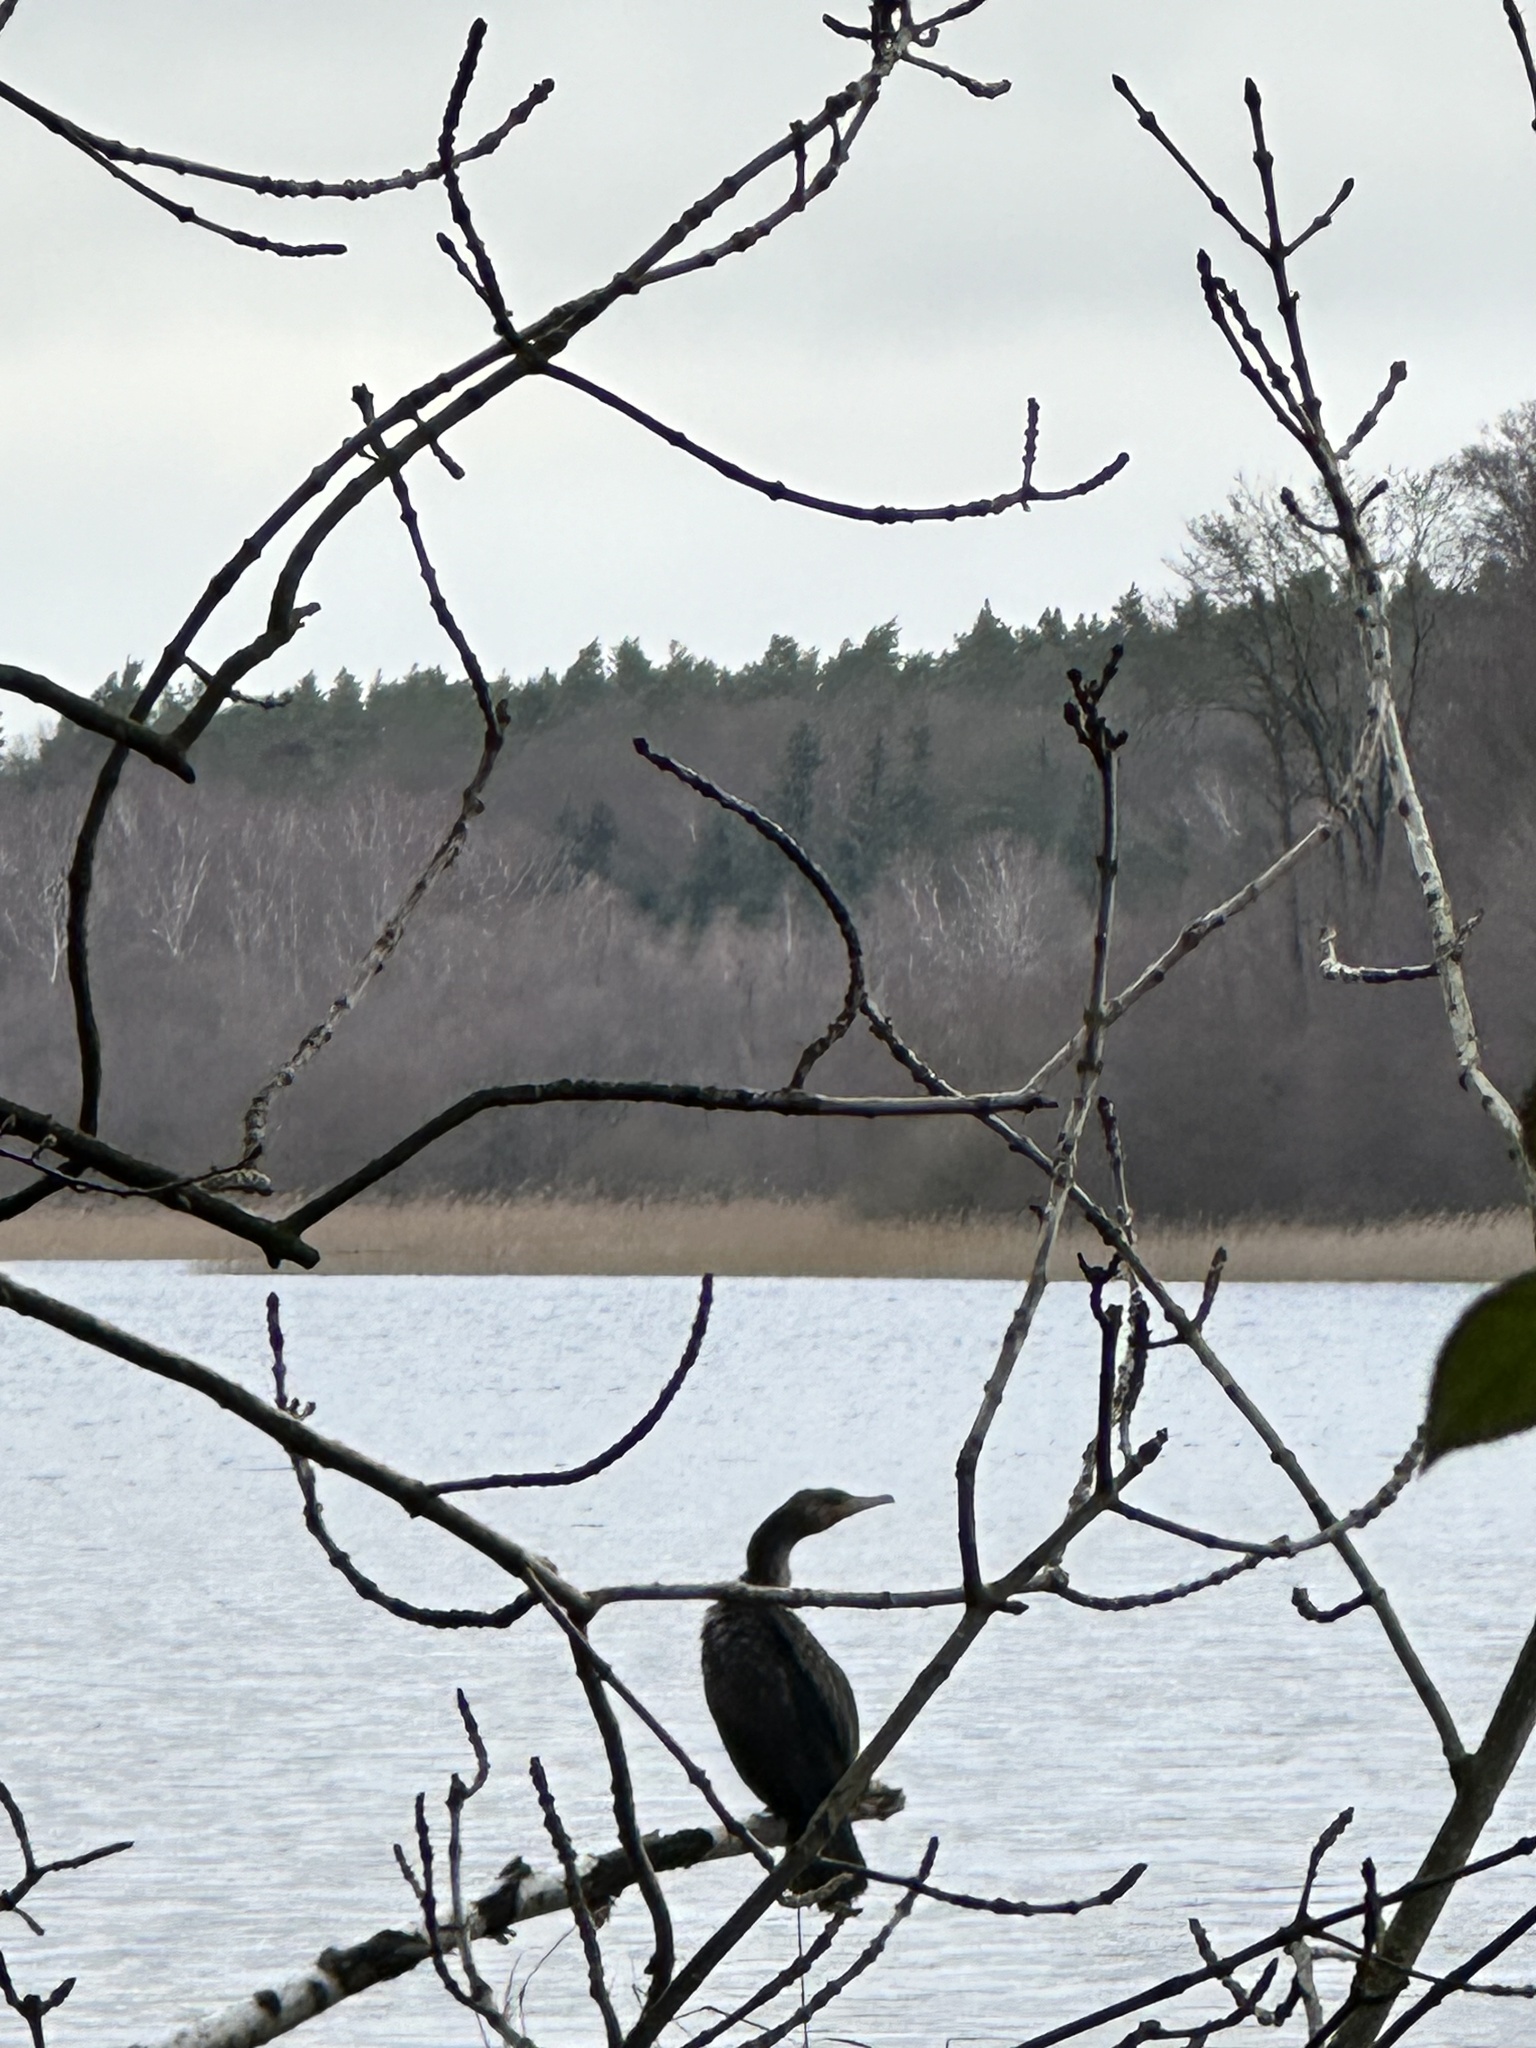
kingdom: Animalia
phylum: Chordata
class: Aves
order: Suliformes
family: Phalacrocoracidae
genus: Phalacrocorax
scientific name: Phalacrocorax carbo
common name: Great cormorant
